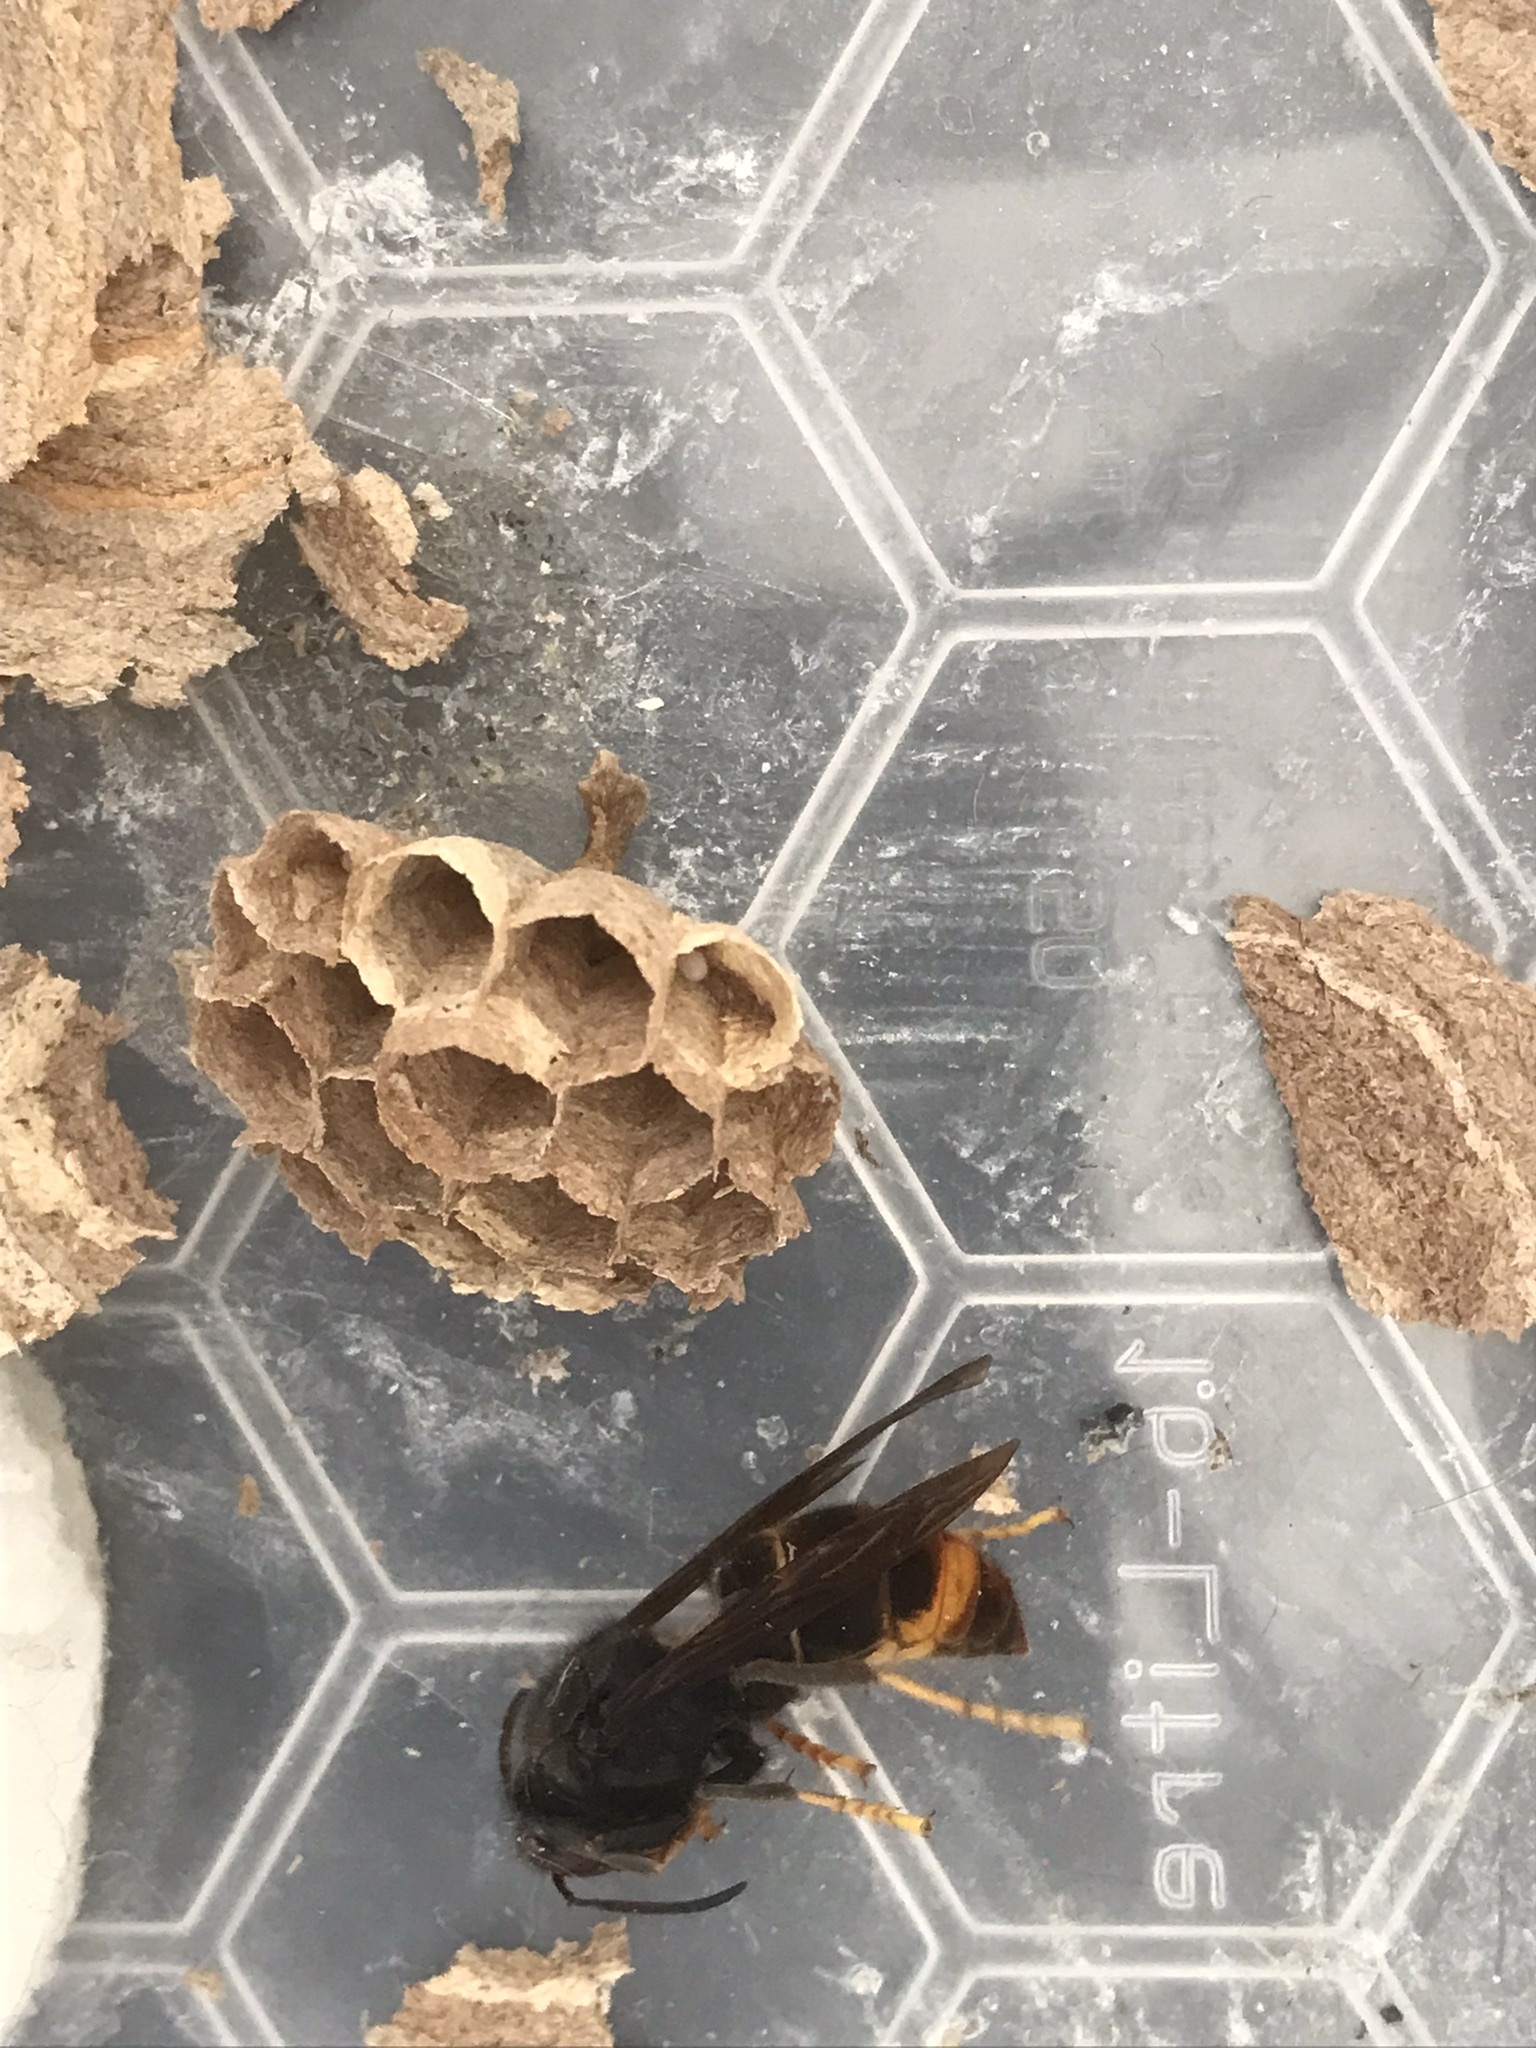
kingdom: Animalia
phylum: Arthropoda
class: Insecta
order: Hymenoptera
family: Vespidae
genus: Vespa
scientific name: Vespa velutina
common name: Asian hornet
